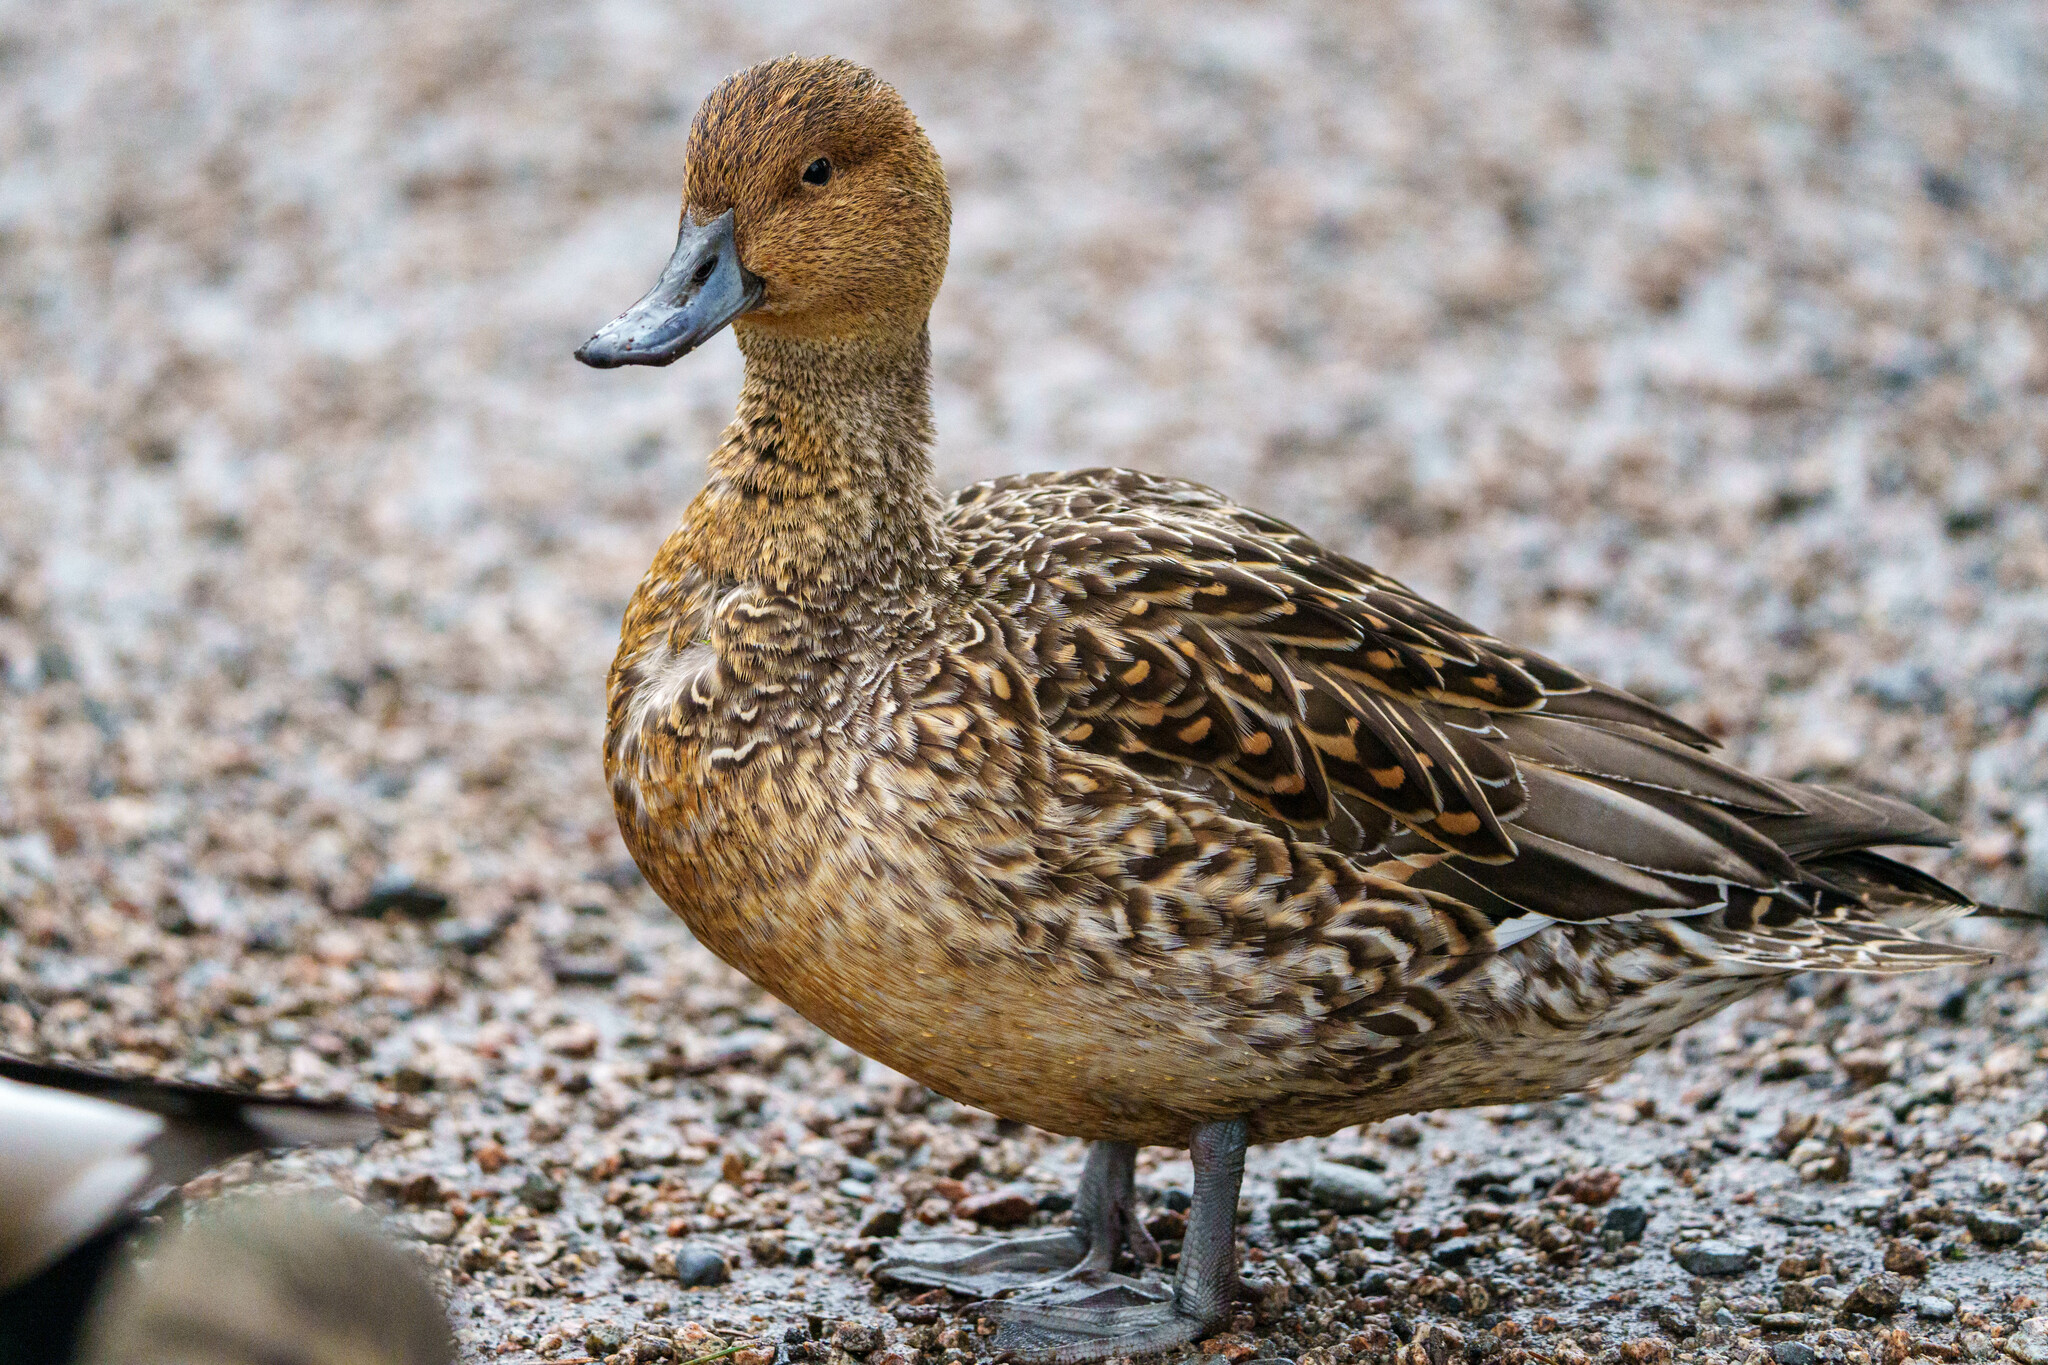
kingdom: Animalia
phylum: Chordata
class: Aves
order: Anseriformes
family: Anatidae
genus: Anas
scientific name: Anas acuta
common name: Northern pintail
